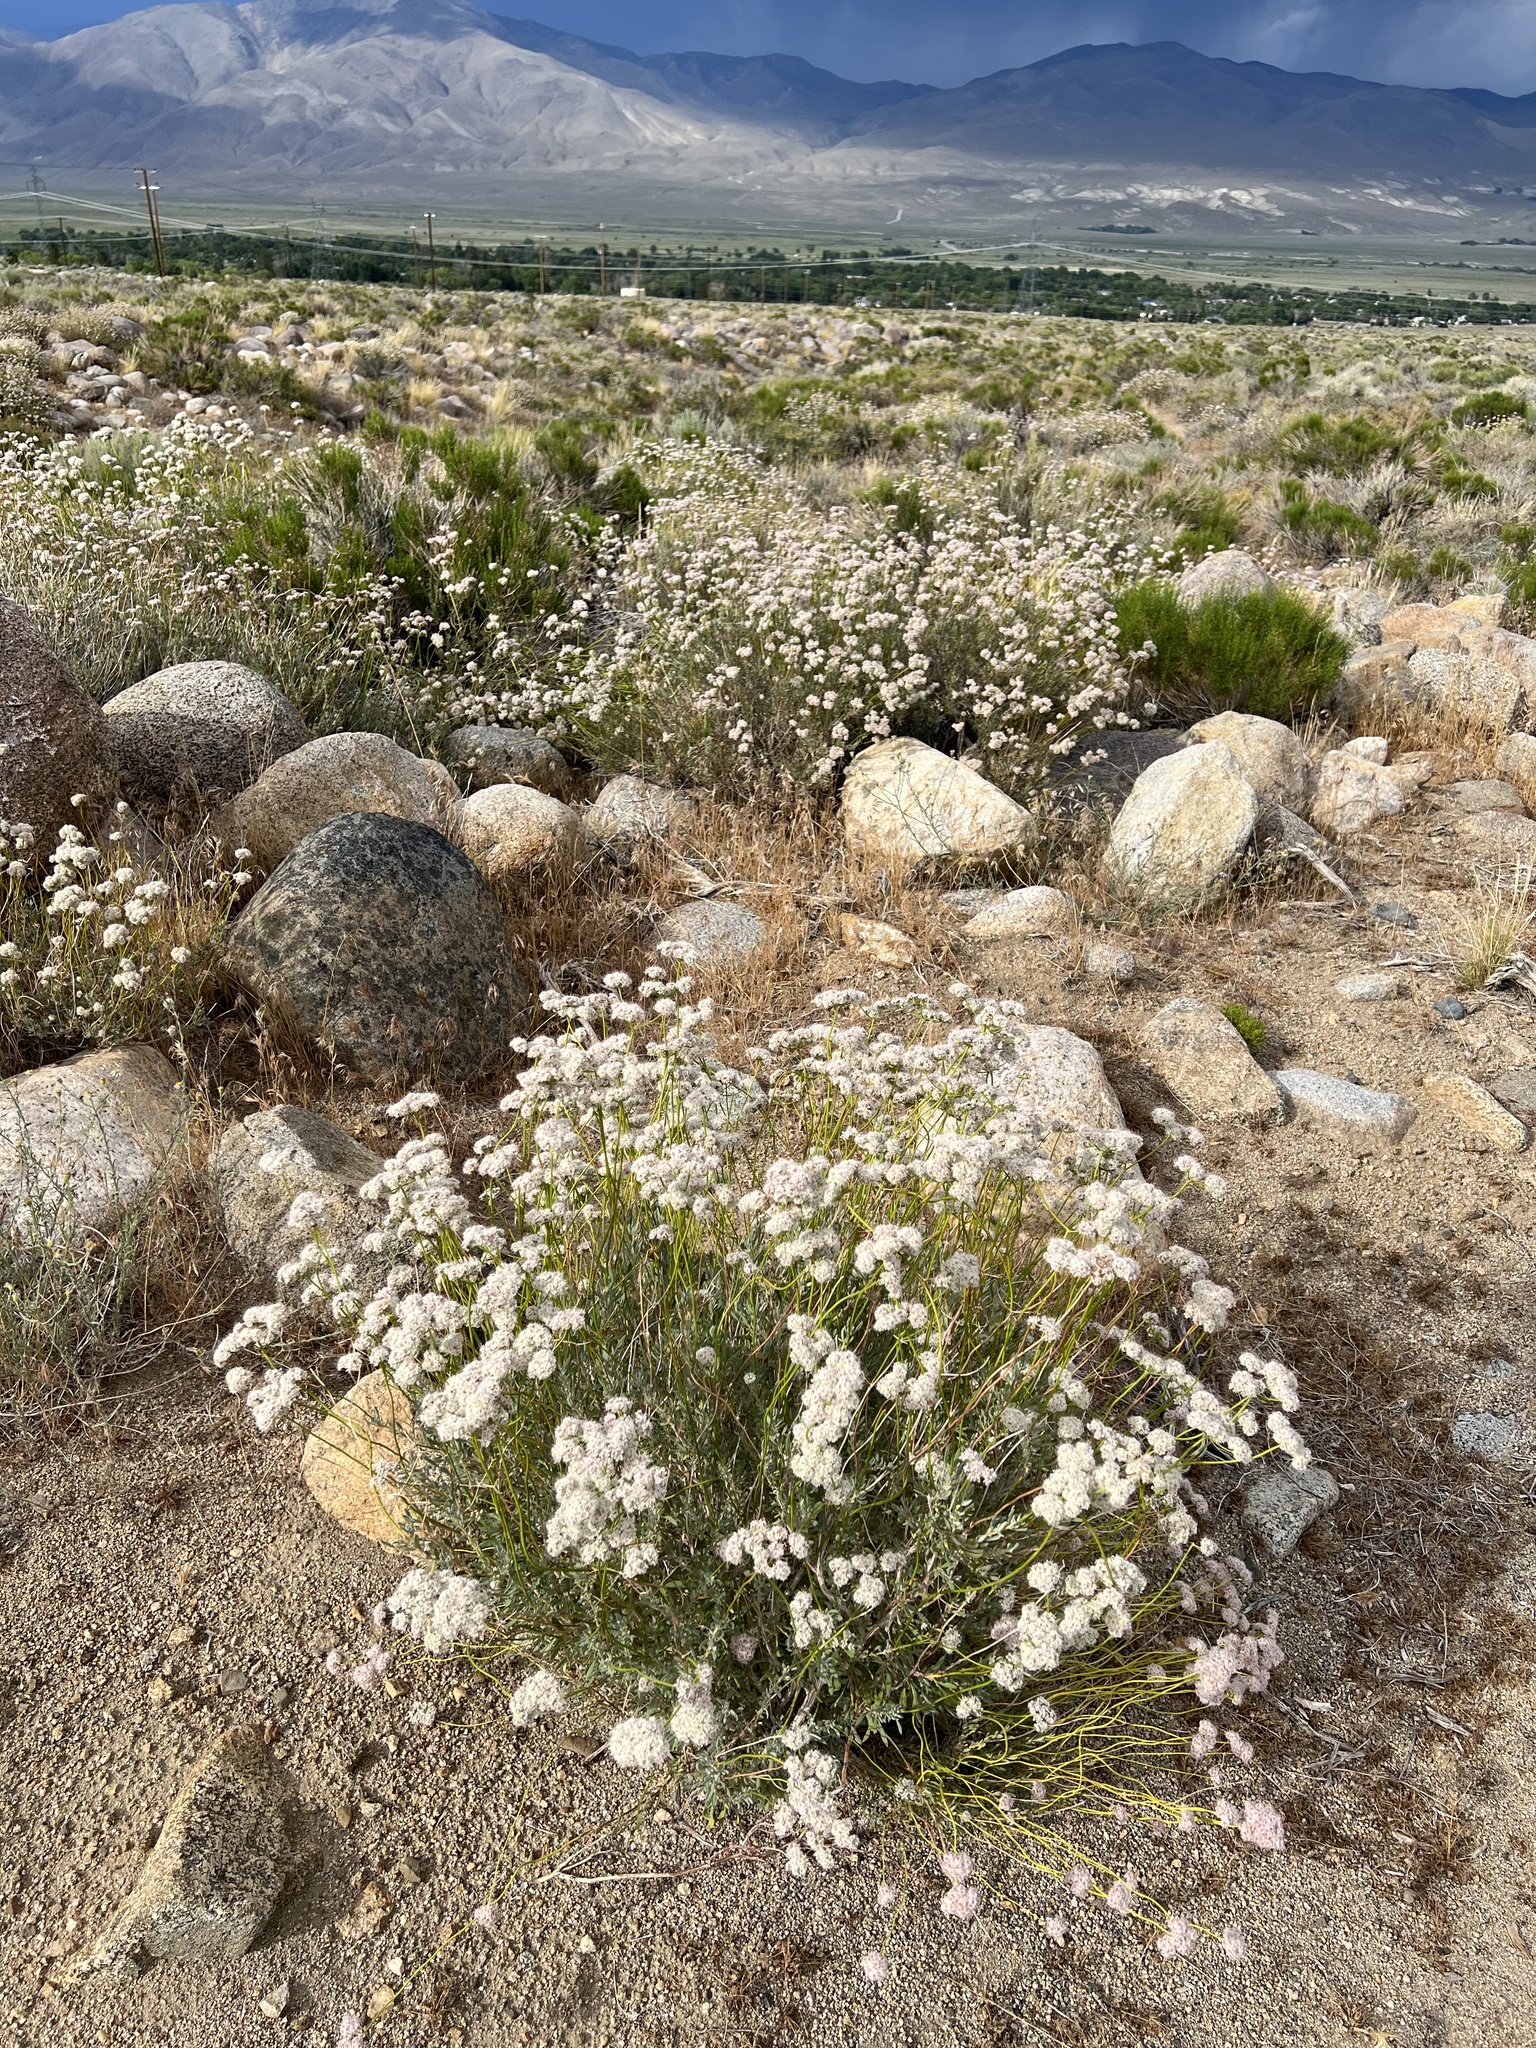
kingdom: Plantae
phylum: Tracheophyta
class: Magnoliopsida
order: Caryophyllales
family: Polygonaceae
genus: Eriogonum
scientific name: Eriogonum fasciculatum
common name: California wild buckwheat
